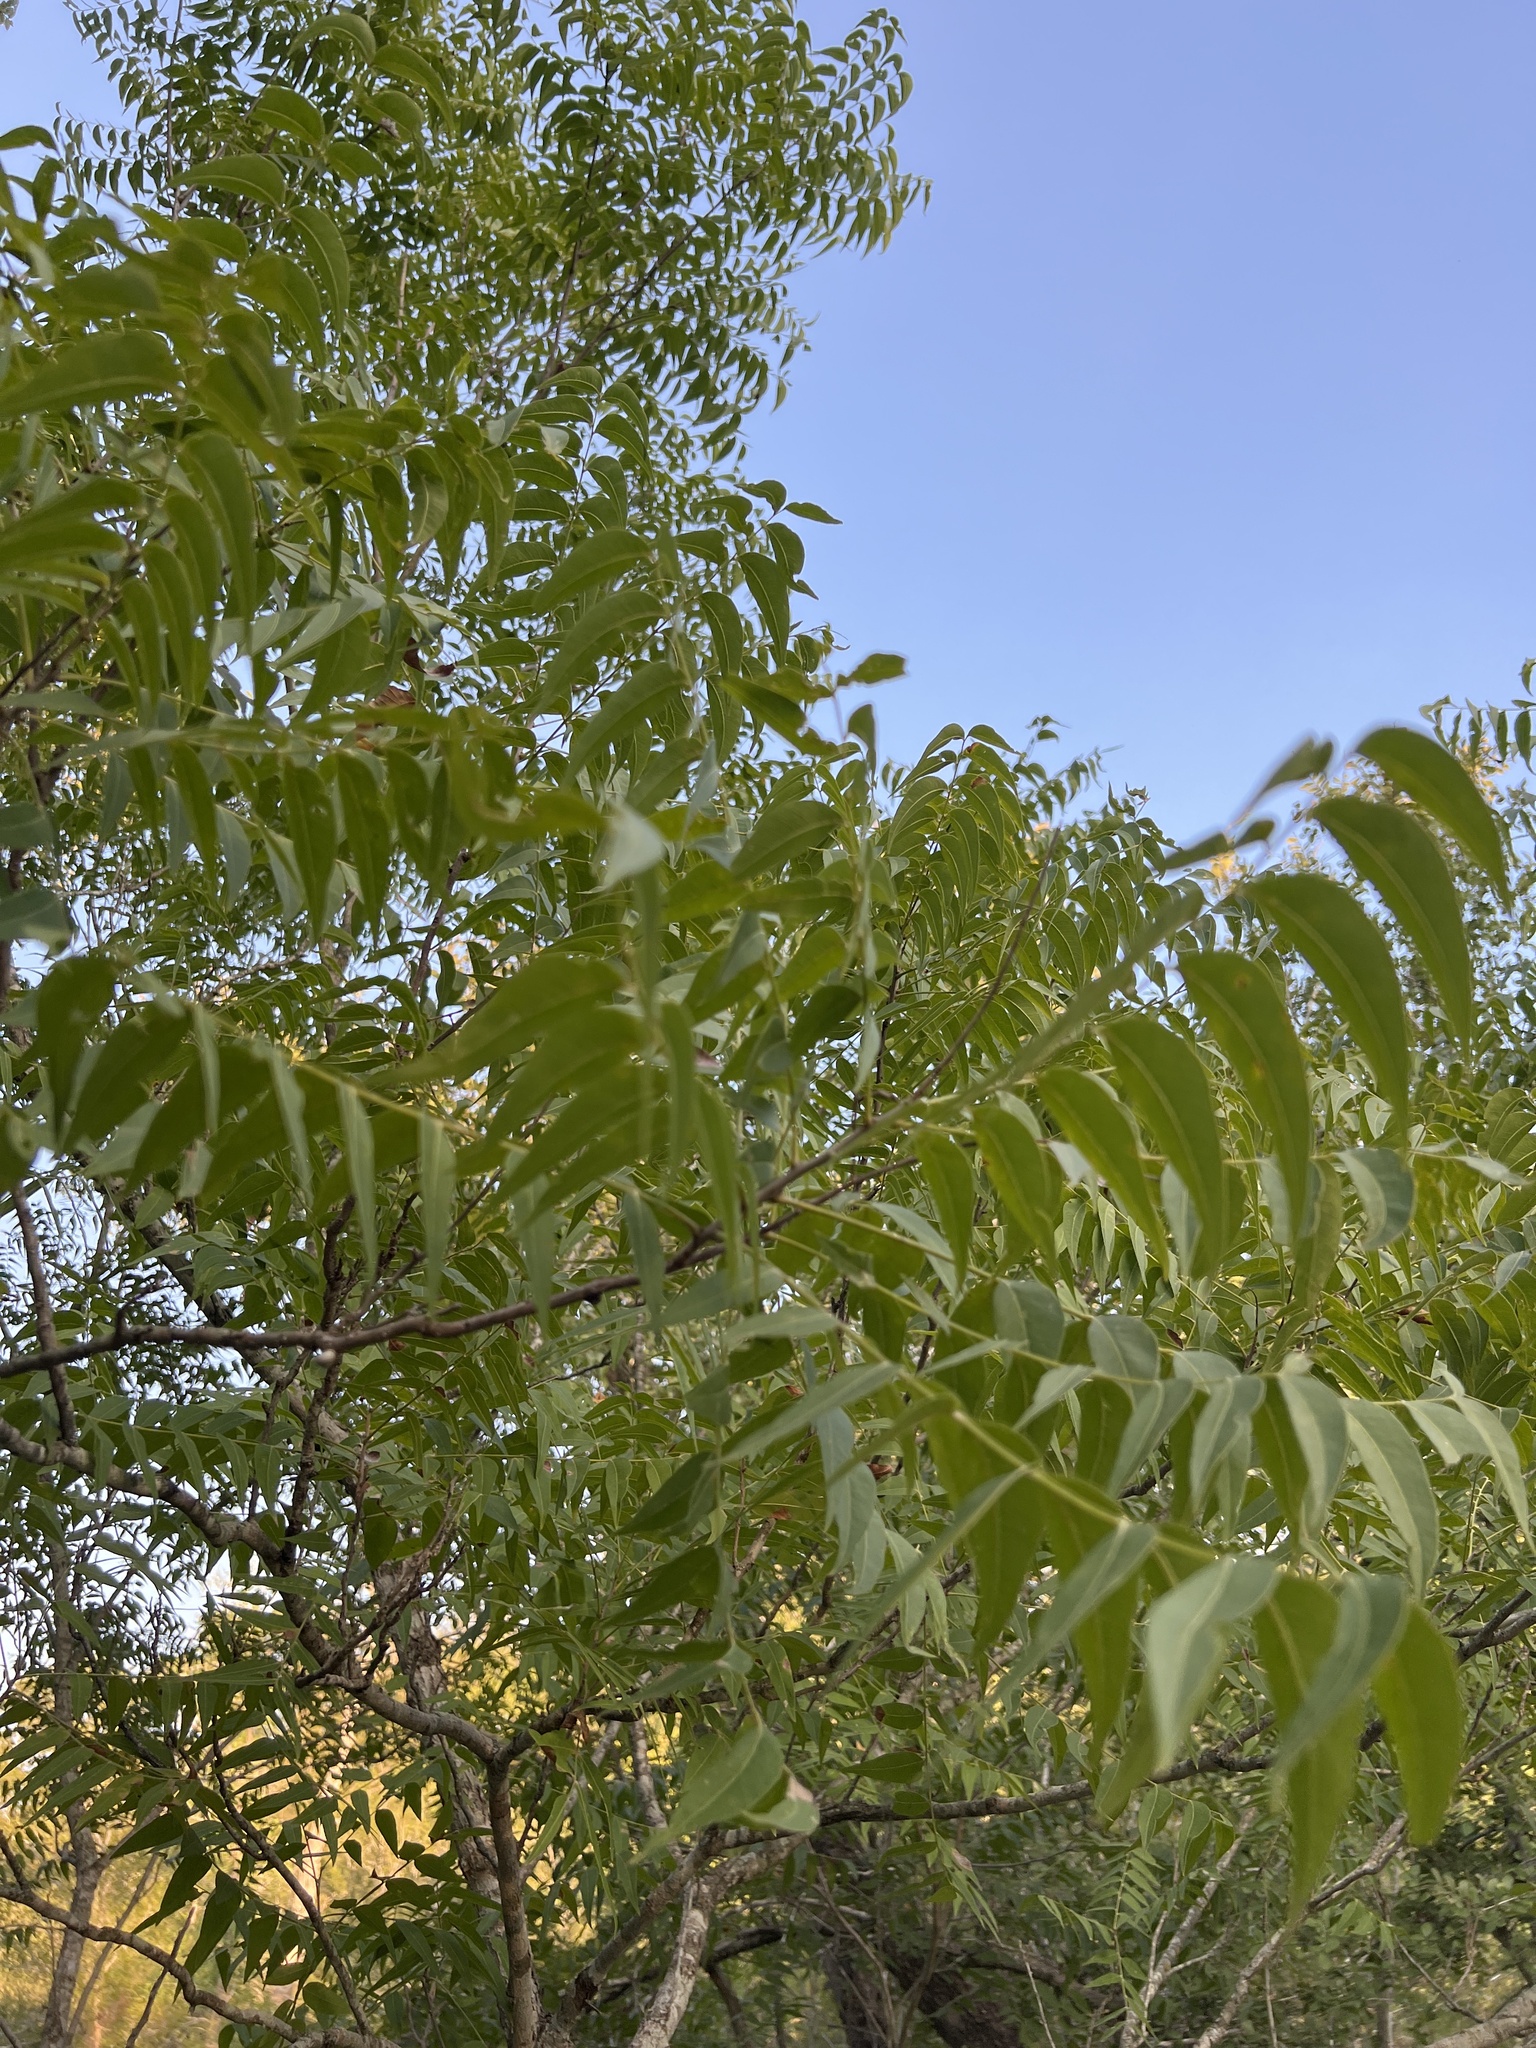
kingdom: Plantae
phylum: Tracheophyta
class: Magnoliopsida
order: Sapindales
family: Sapindaceae
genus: Sapindus
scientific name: Sapindus drummondii
